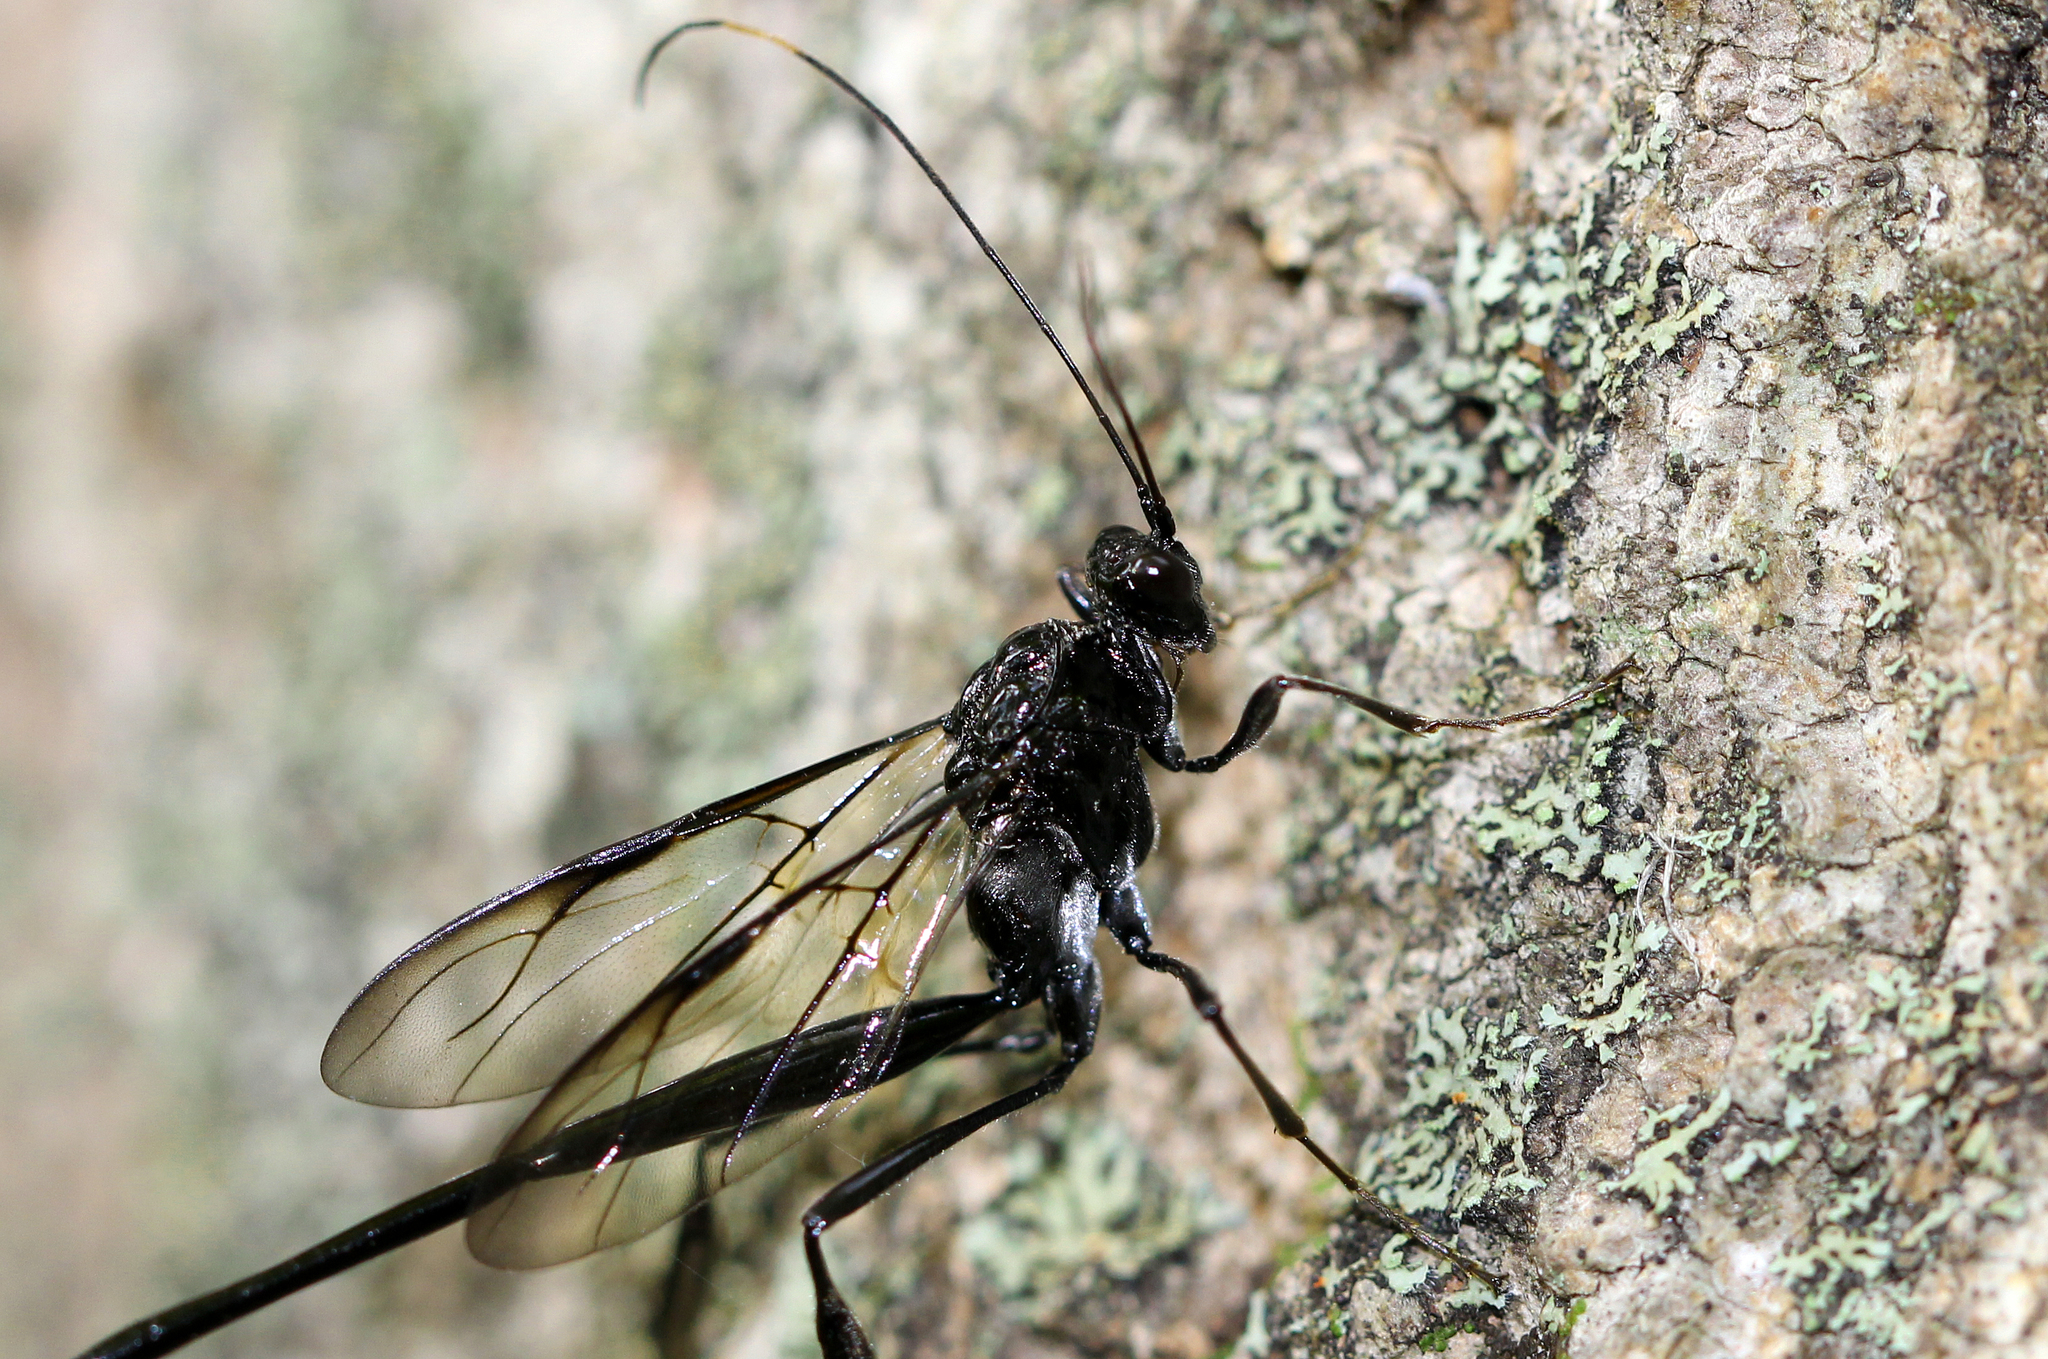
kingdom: Animalia
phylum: Arthropoda
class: Insecta
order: Hymenoptera
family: Pelecinidae
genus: Pelecinus
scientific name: Pelecinus polyturator
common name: American pelecinid wasp
